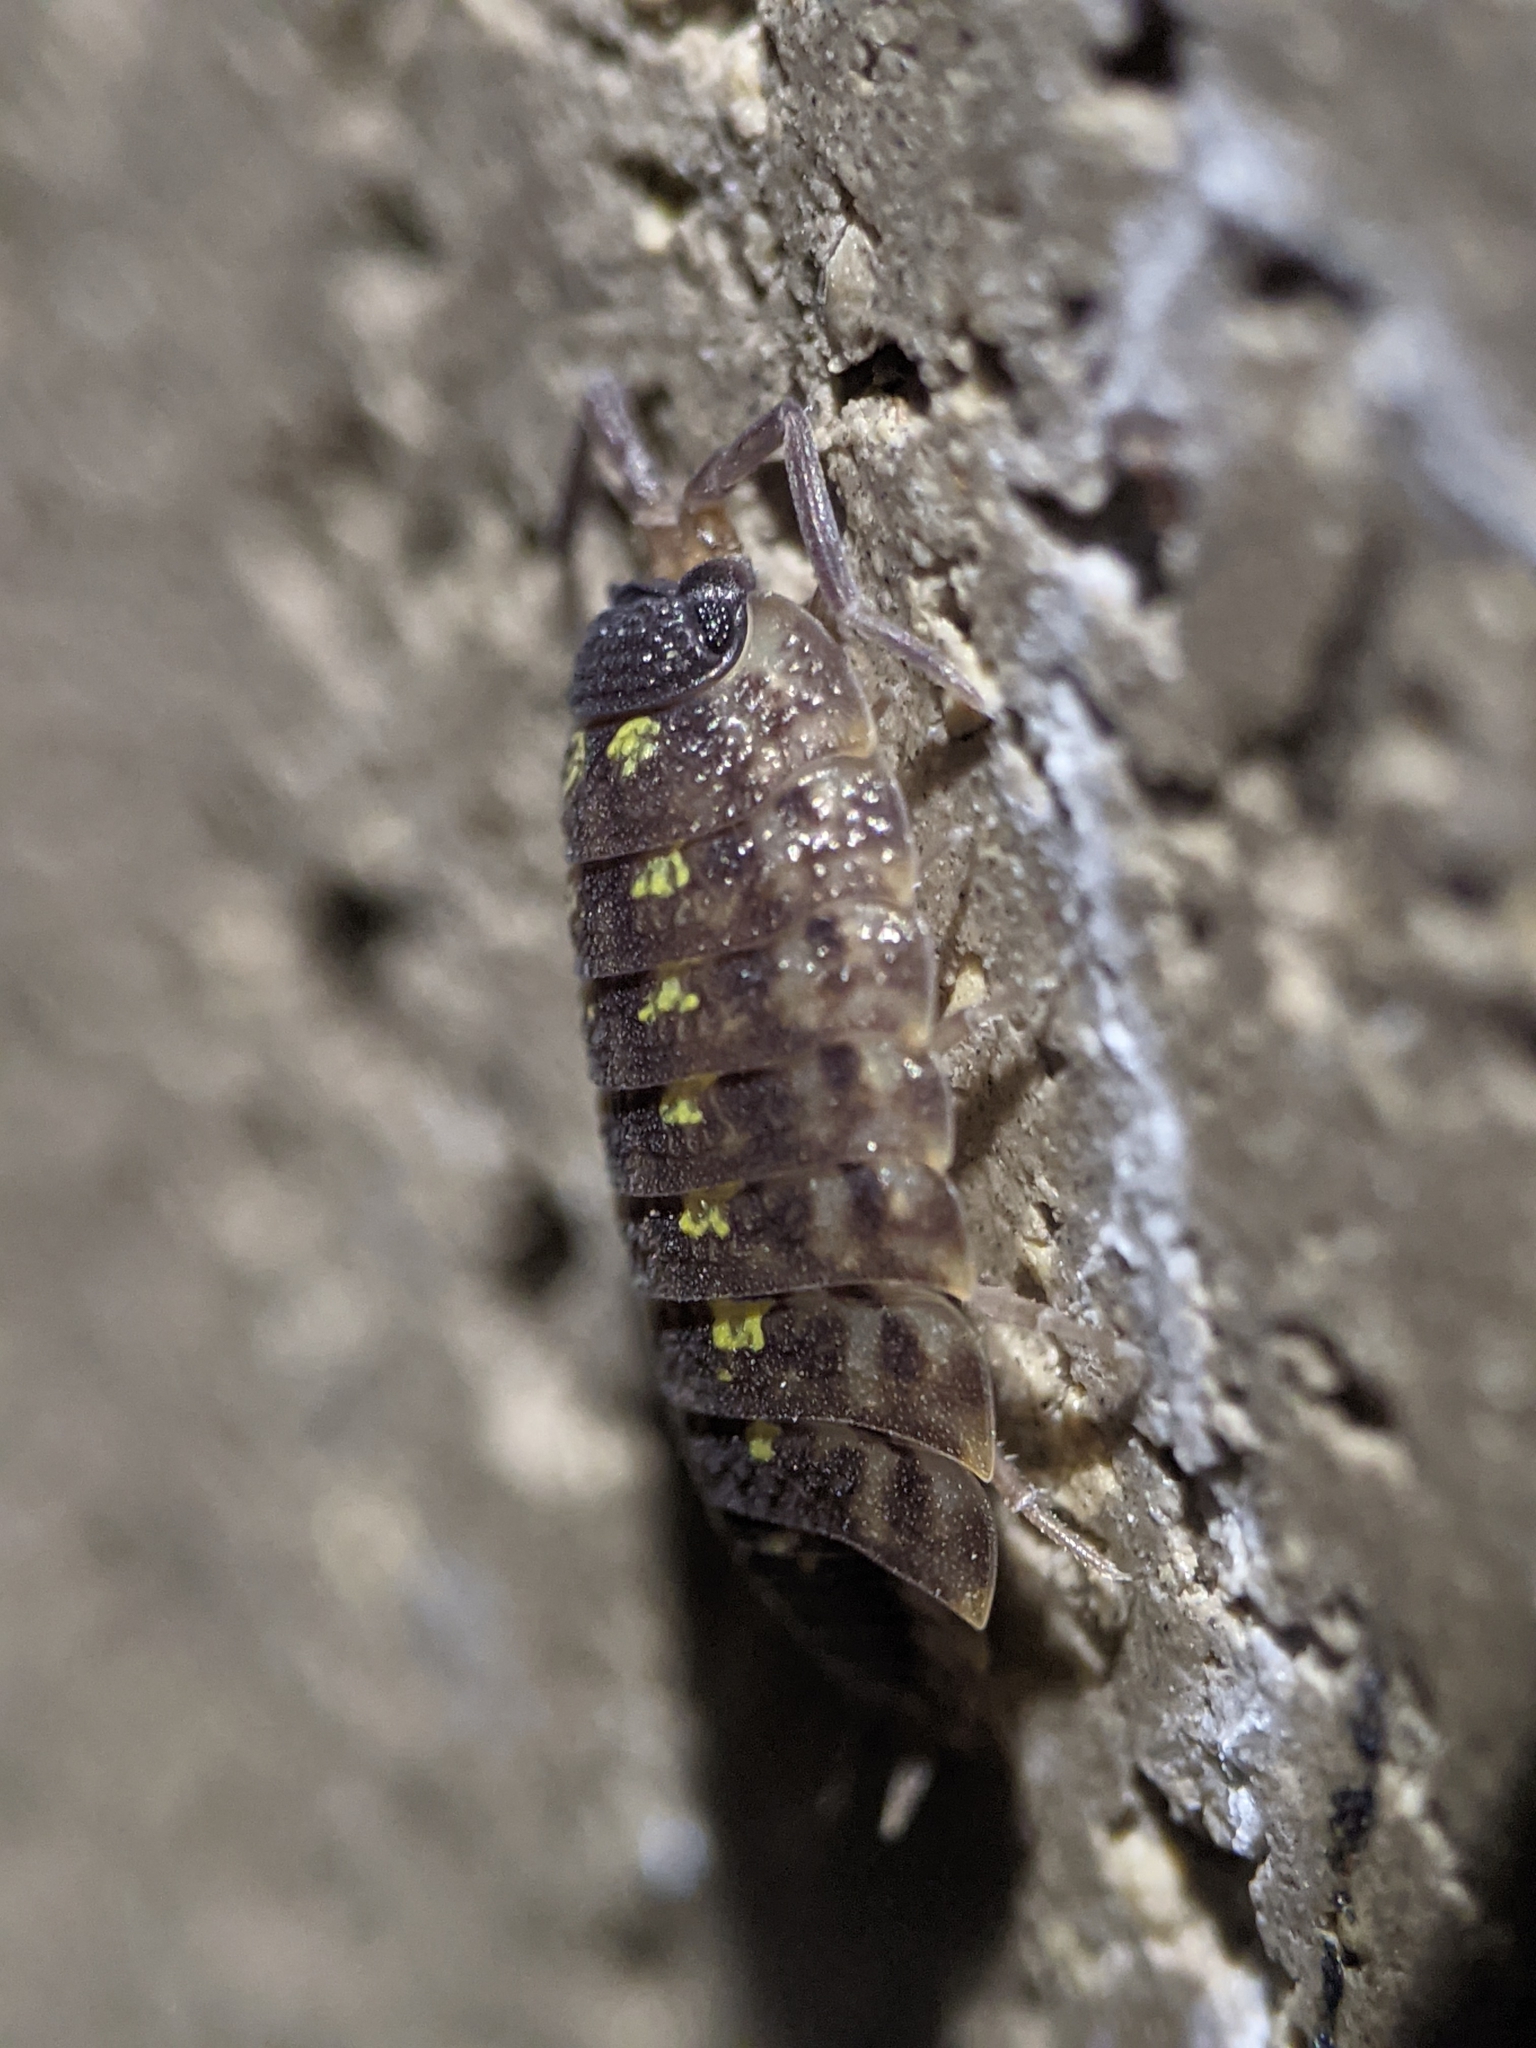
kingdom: Animalia
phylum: Arthropoda
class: Malacostraca
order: Isopoda
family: Porcellionidae
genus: Porcellio
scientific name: Porcellio spinicornis
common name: Painted woodlouse
